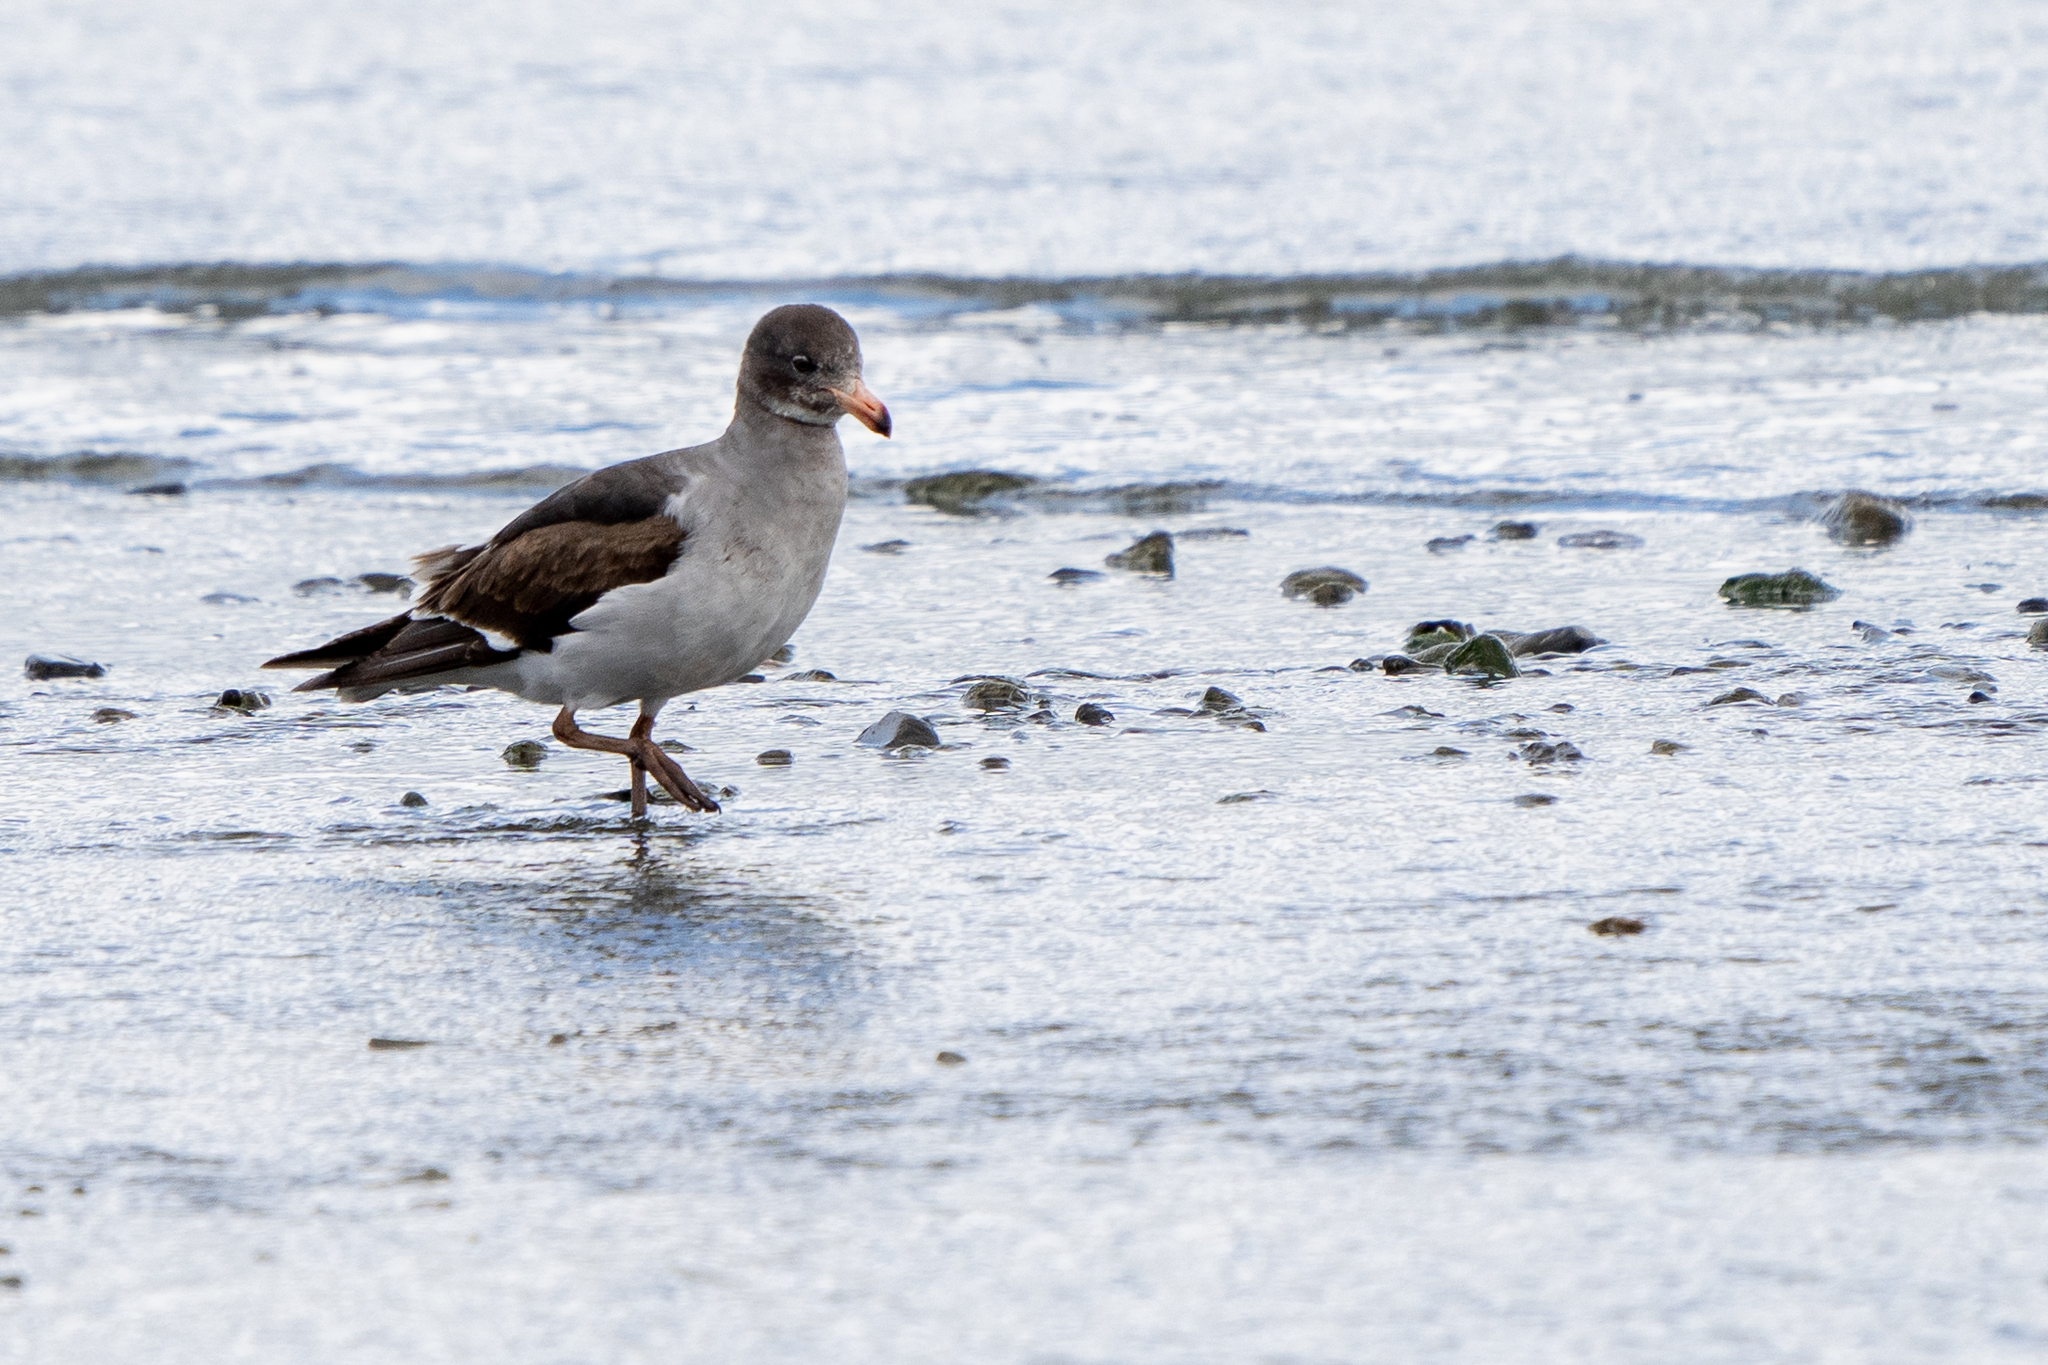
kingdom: Animalia
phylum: Chordata
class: Aves
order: Charadriiformes
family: Laridae
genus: Leucophaeus
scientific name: Leucophaeus scoresbii
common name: Dolphin gull
